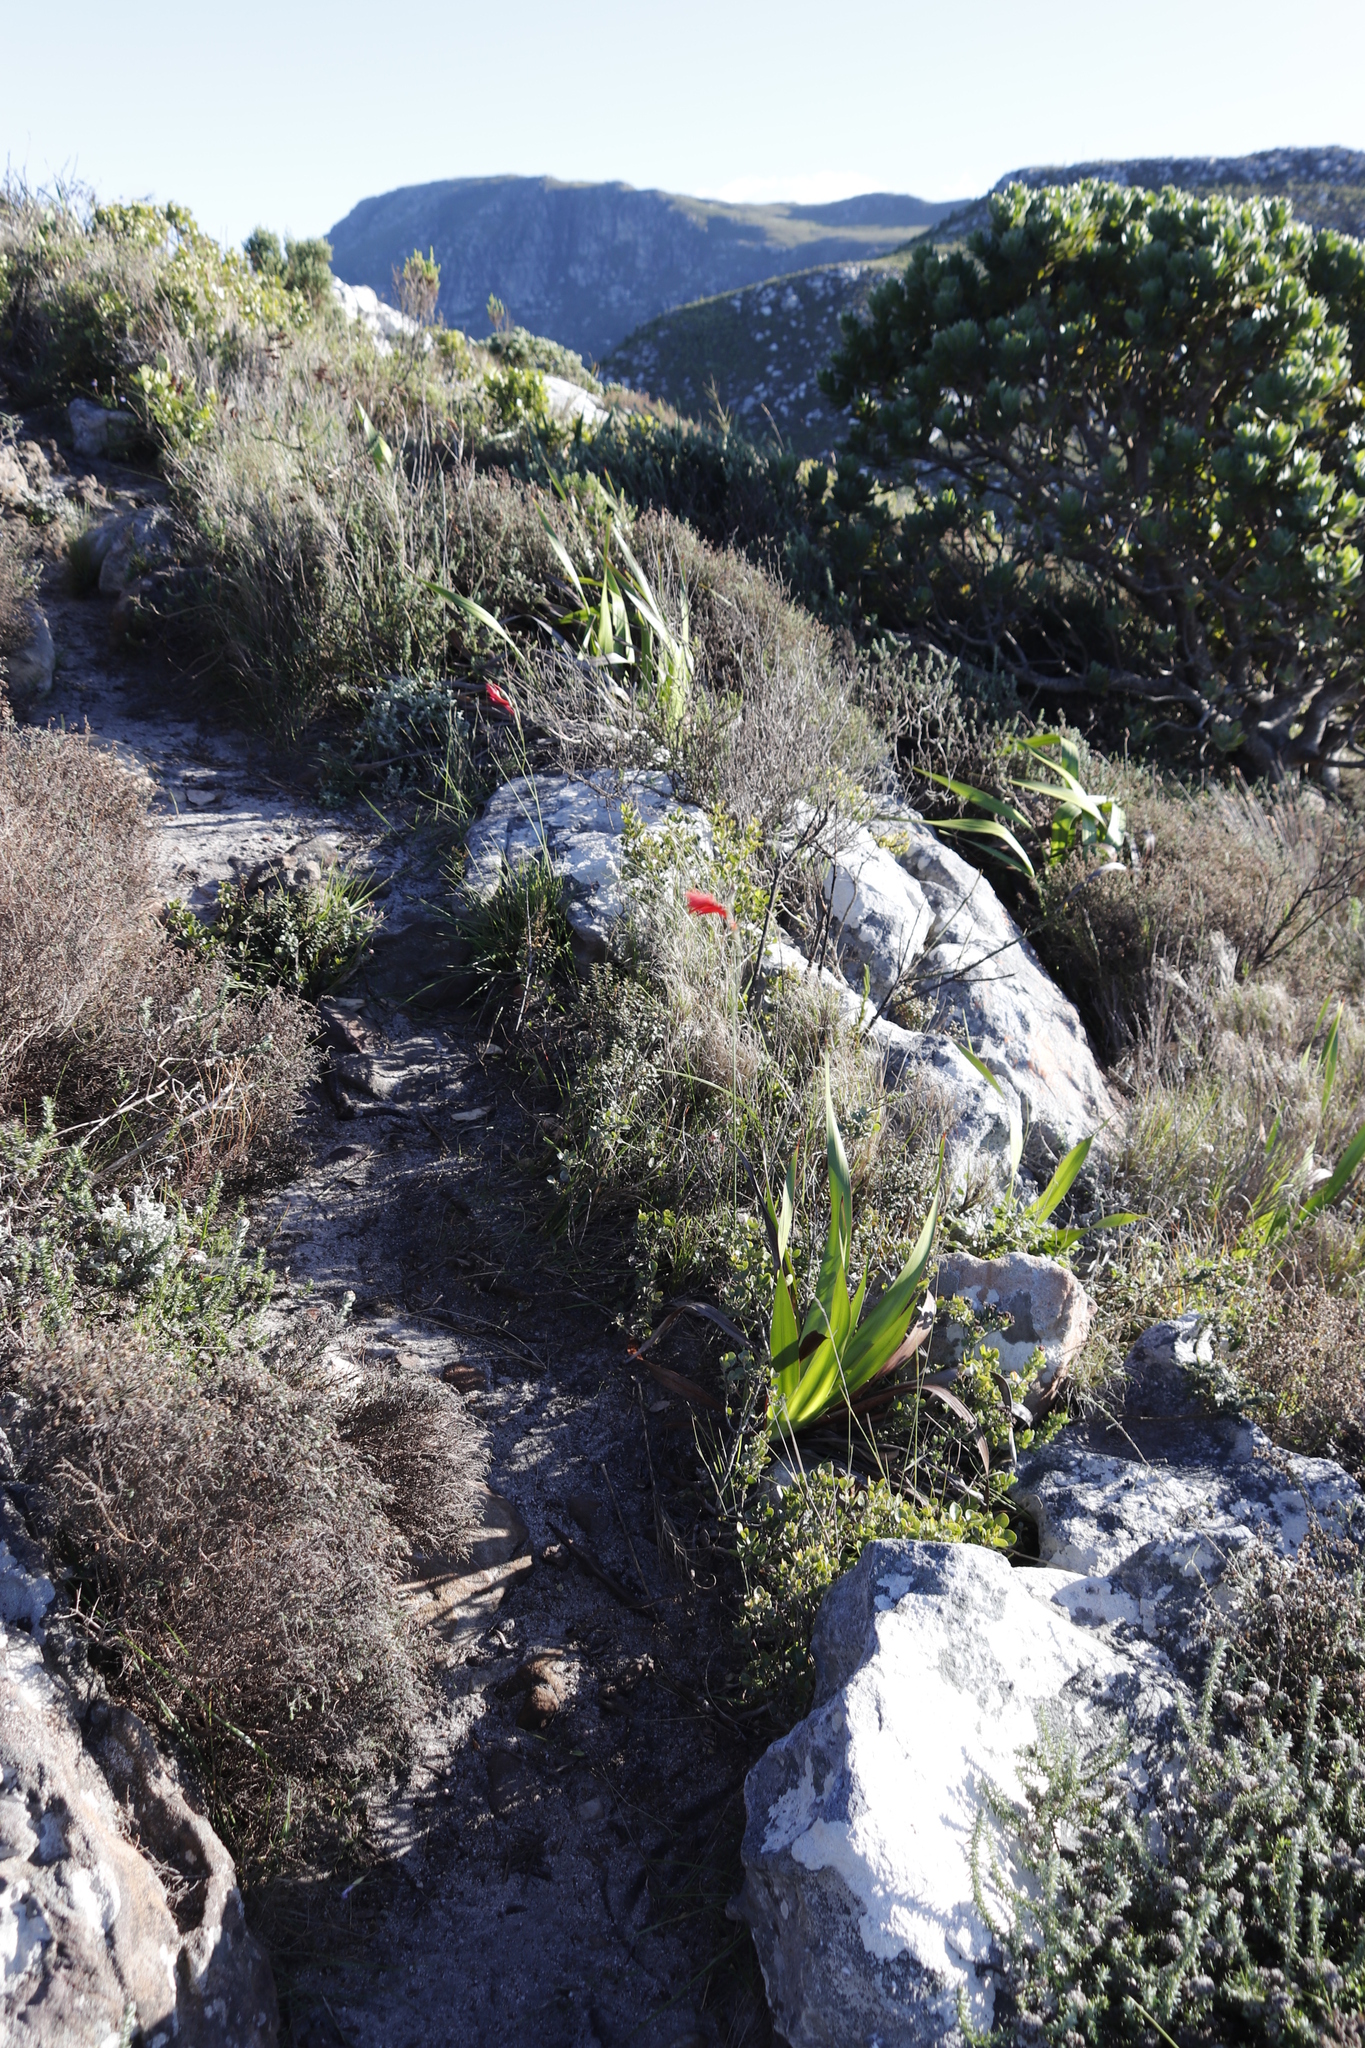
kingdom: Plantae
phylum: Tracheophyta
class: Liliopsida
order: Asparagales
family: Iridaceae
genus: Gladiolus
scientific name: Gladiolus priorii
